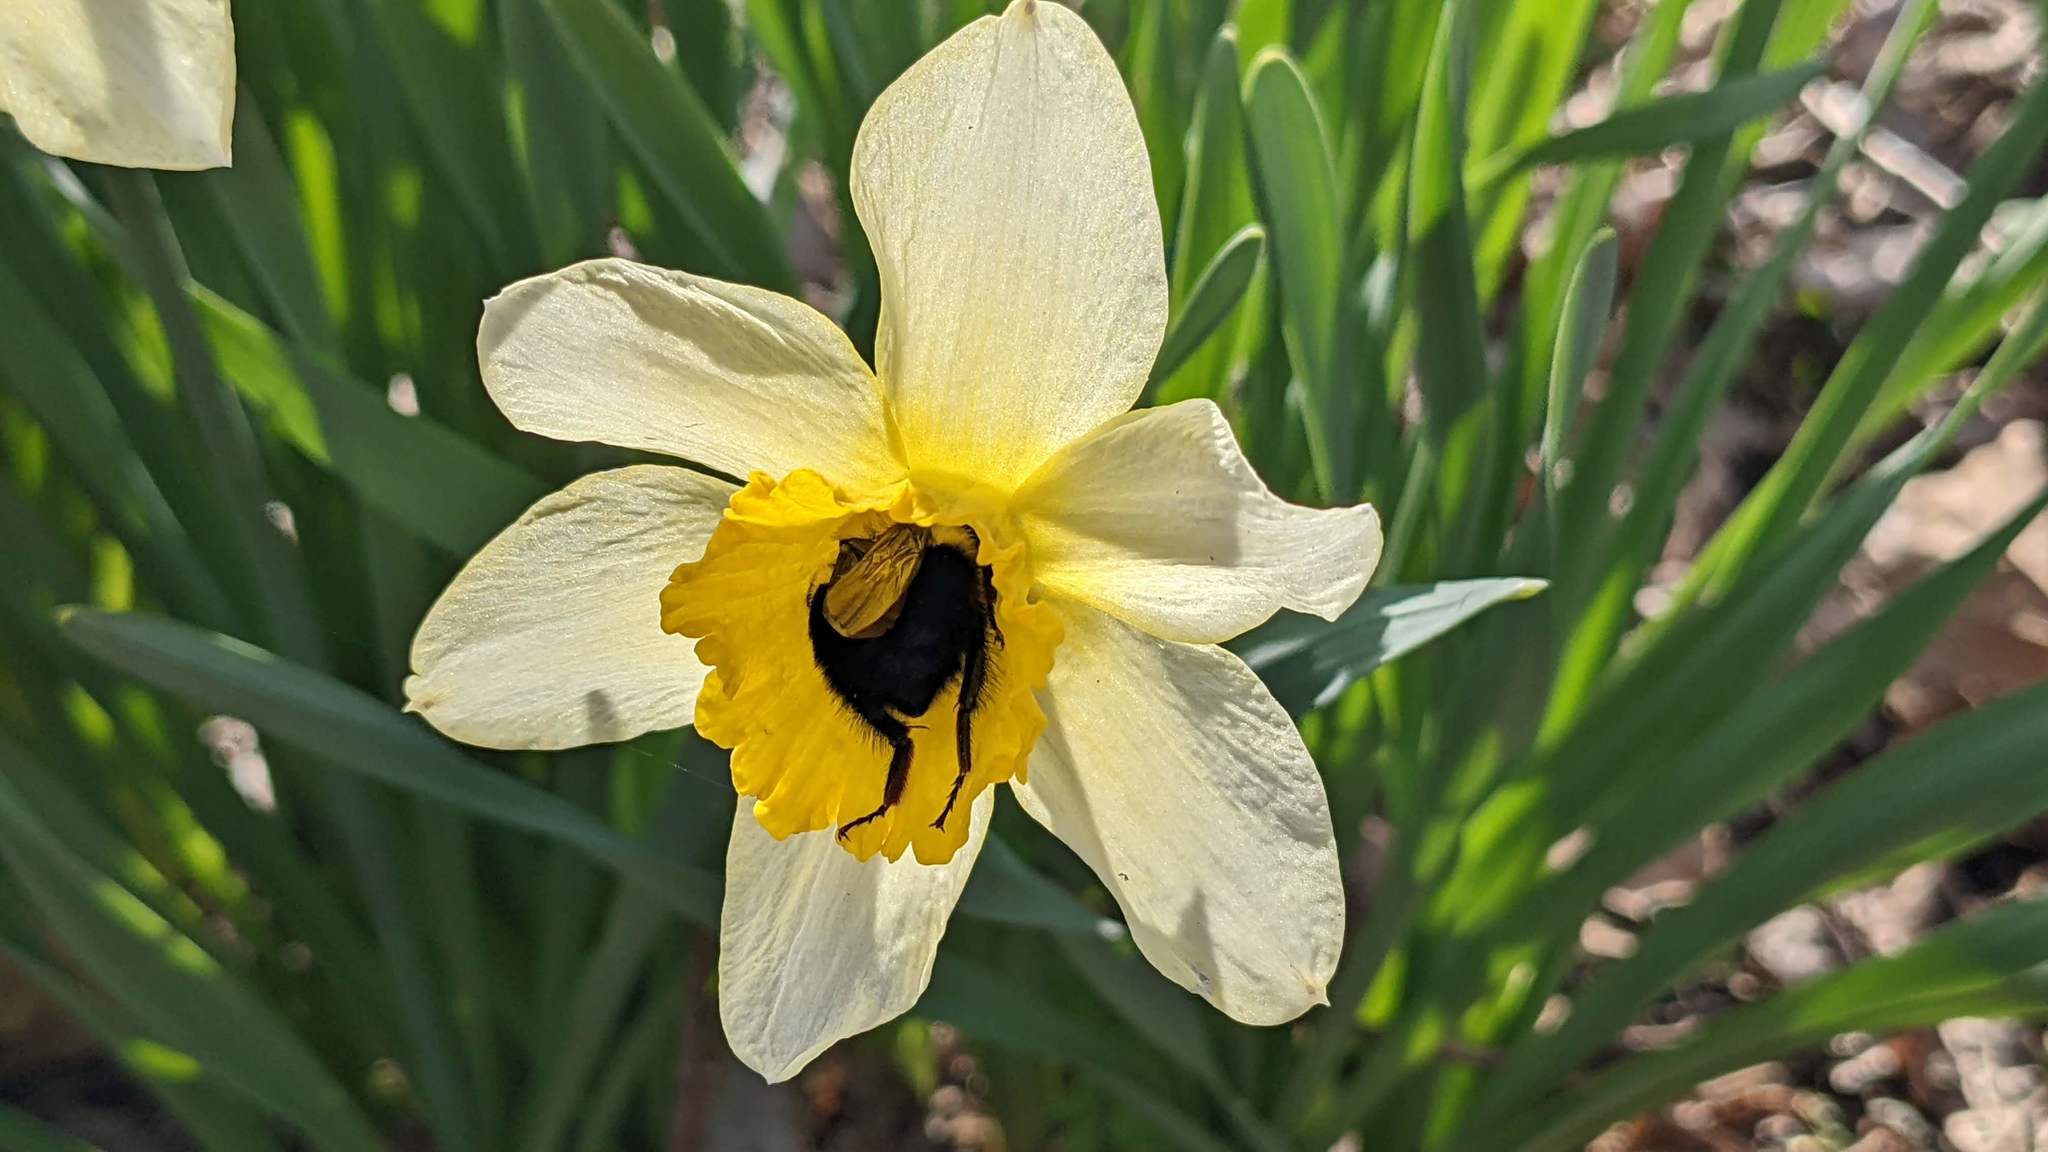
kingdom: Animalia
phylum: Arthropoda
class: Insecta
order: Hymenoptera
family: Apidae
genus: Bombus
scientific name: Bombus bimaculatus
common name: Two-spotted bumble bee
